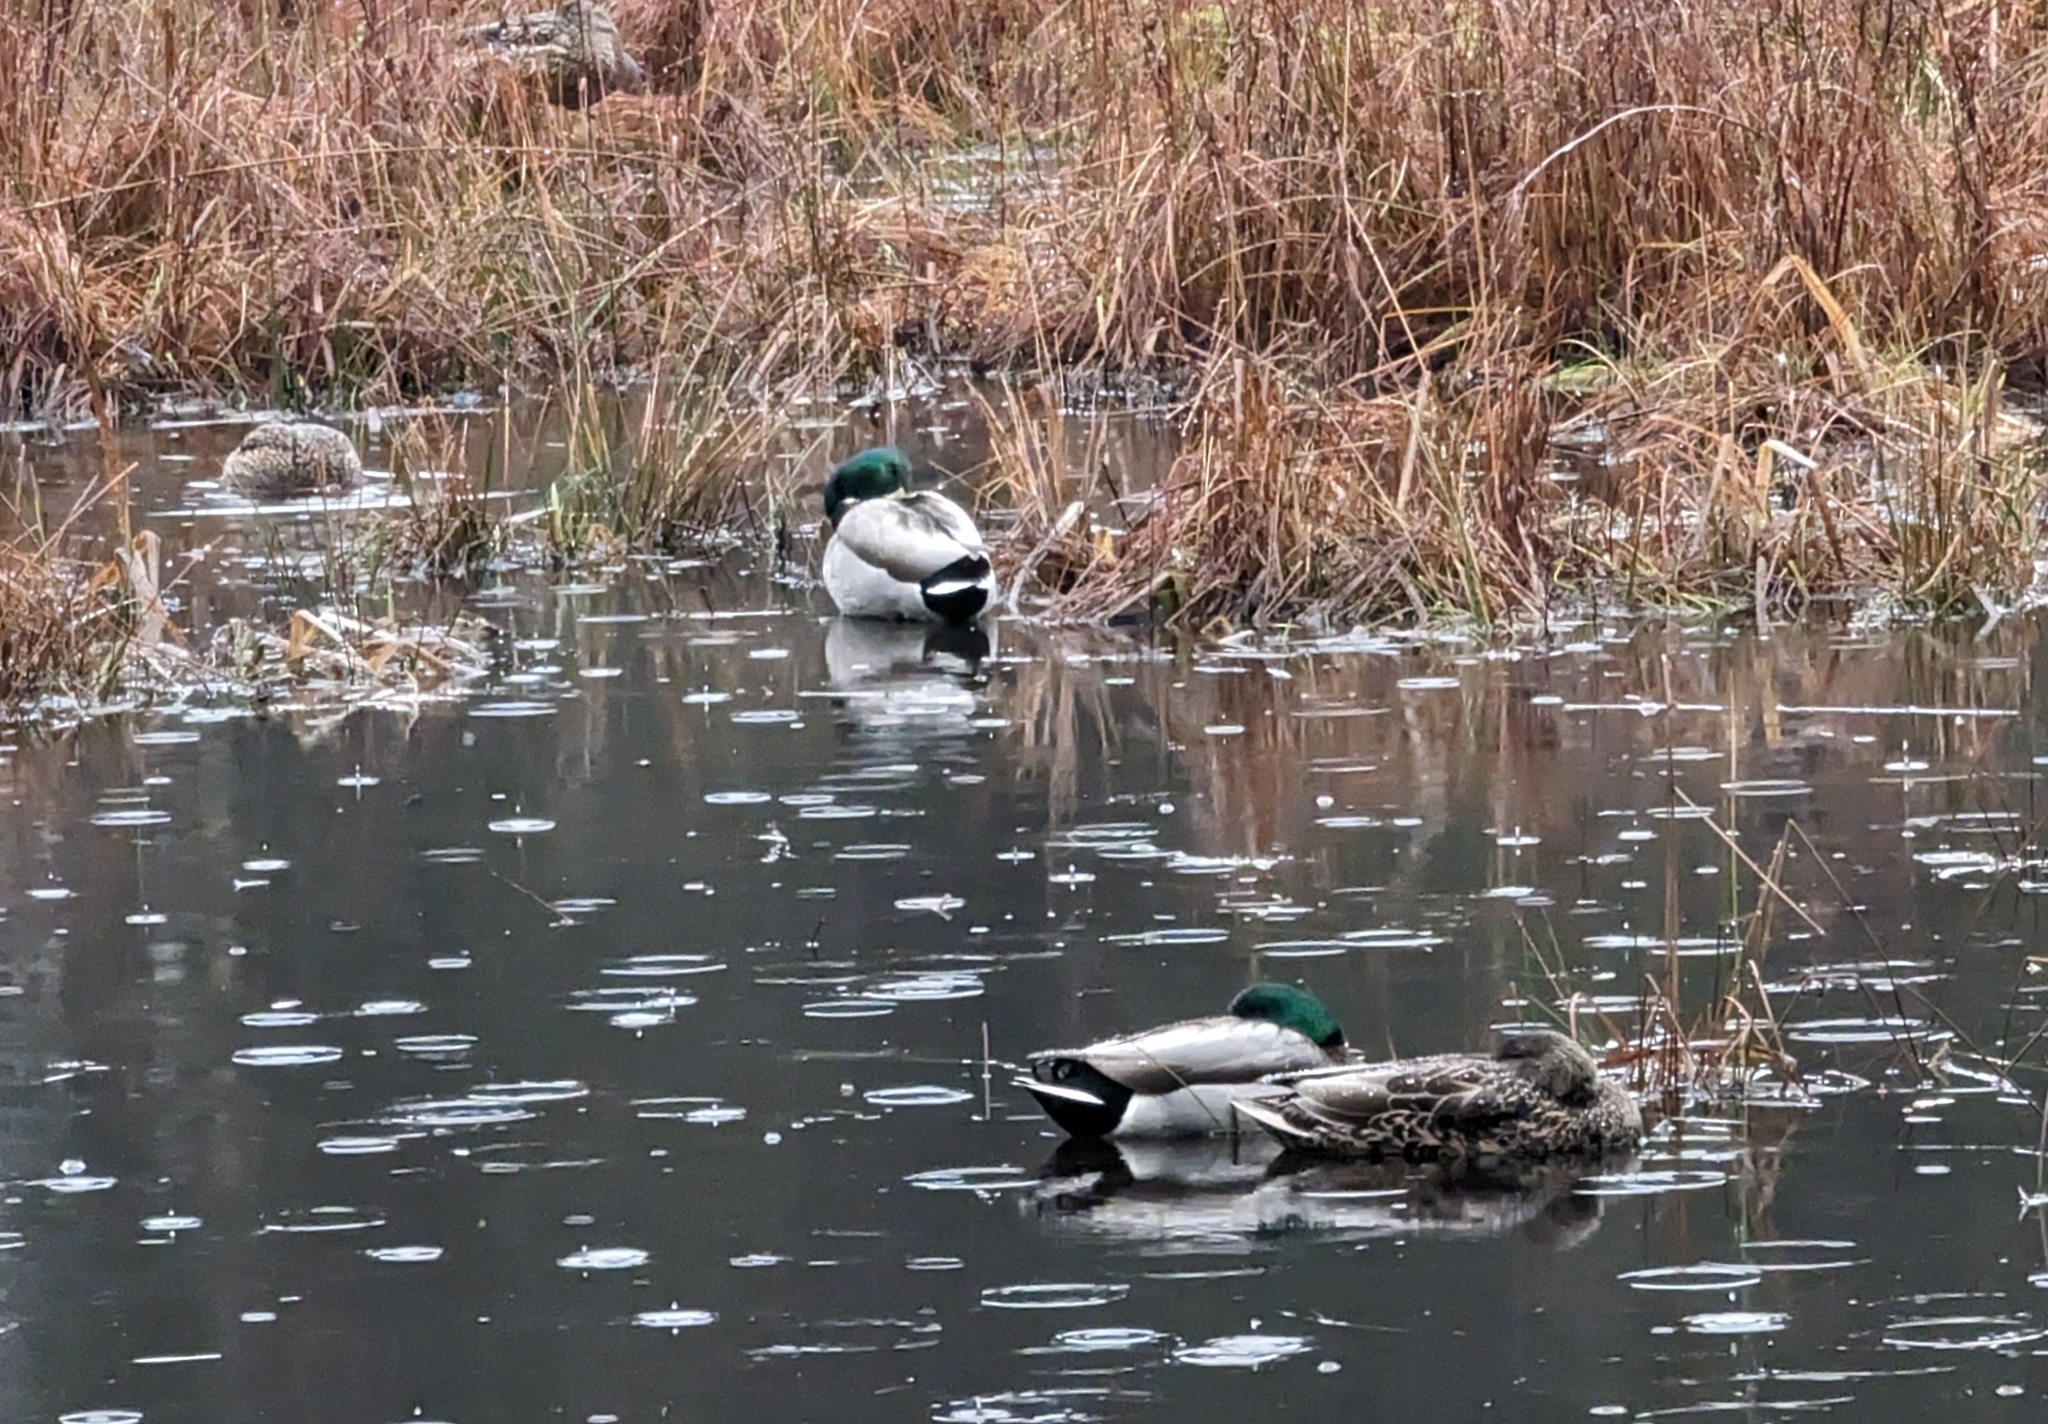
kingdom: Animalia
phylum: Chordata
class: Aves
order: Anseriformes
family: Anatidae
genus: Anas
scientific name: Anas platyrhynchos
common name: Mallard
